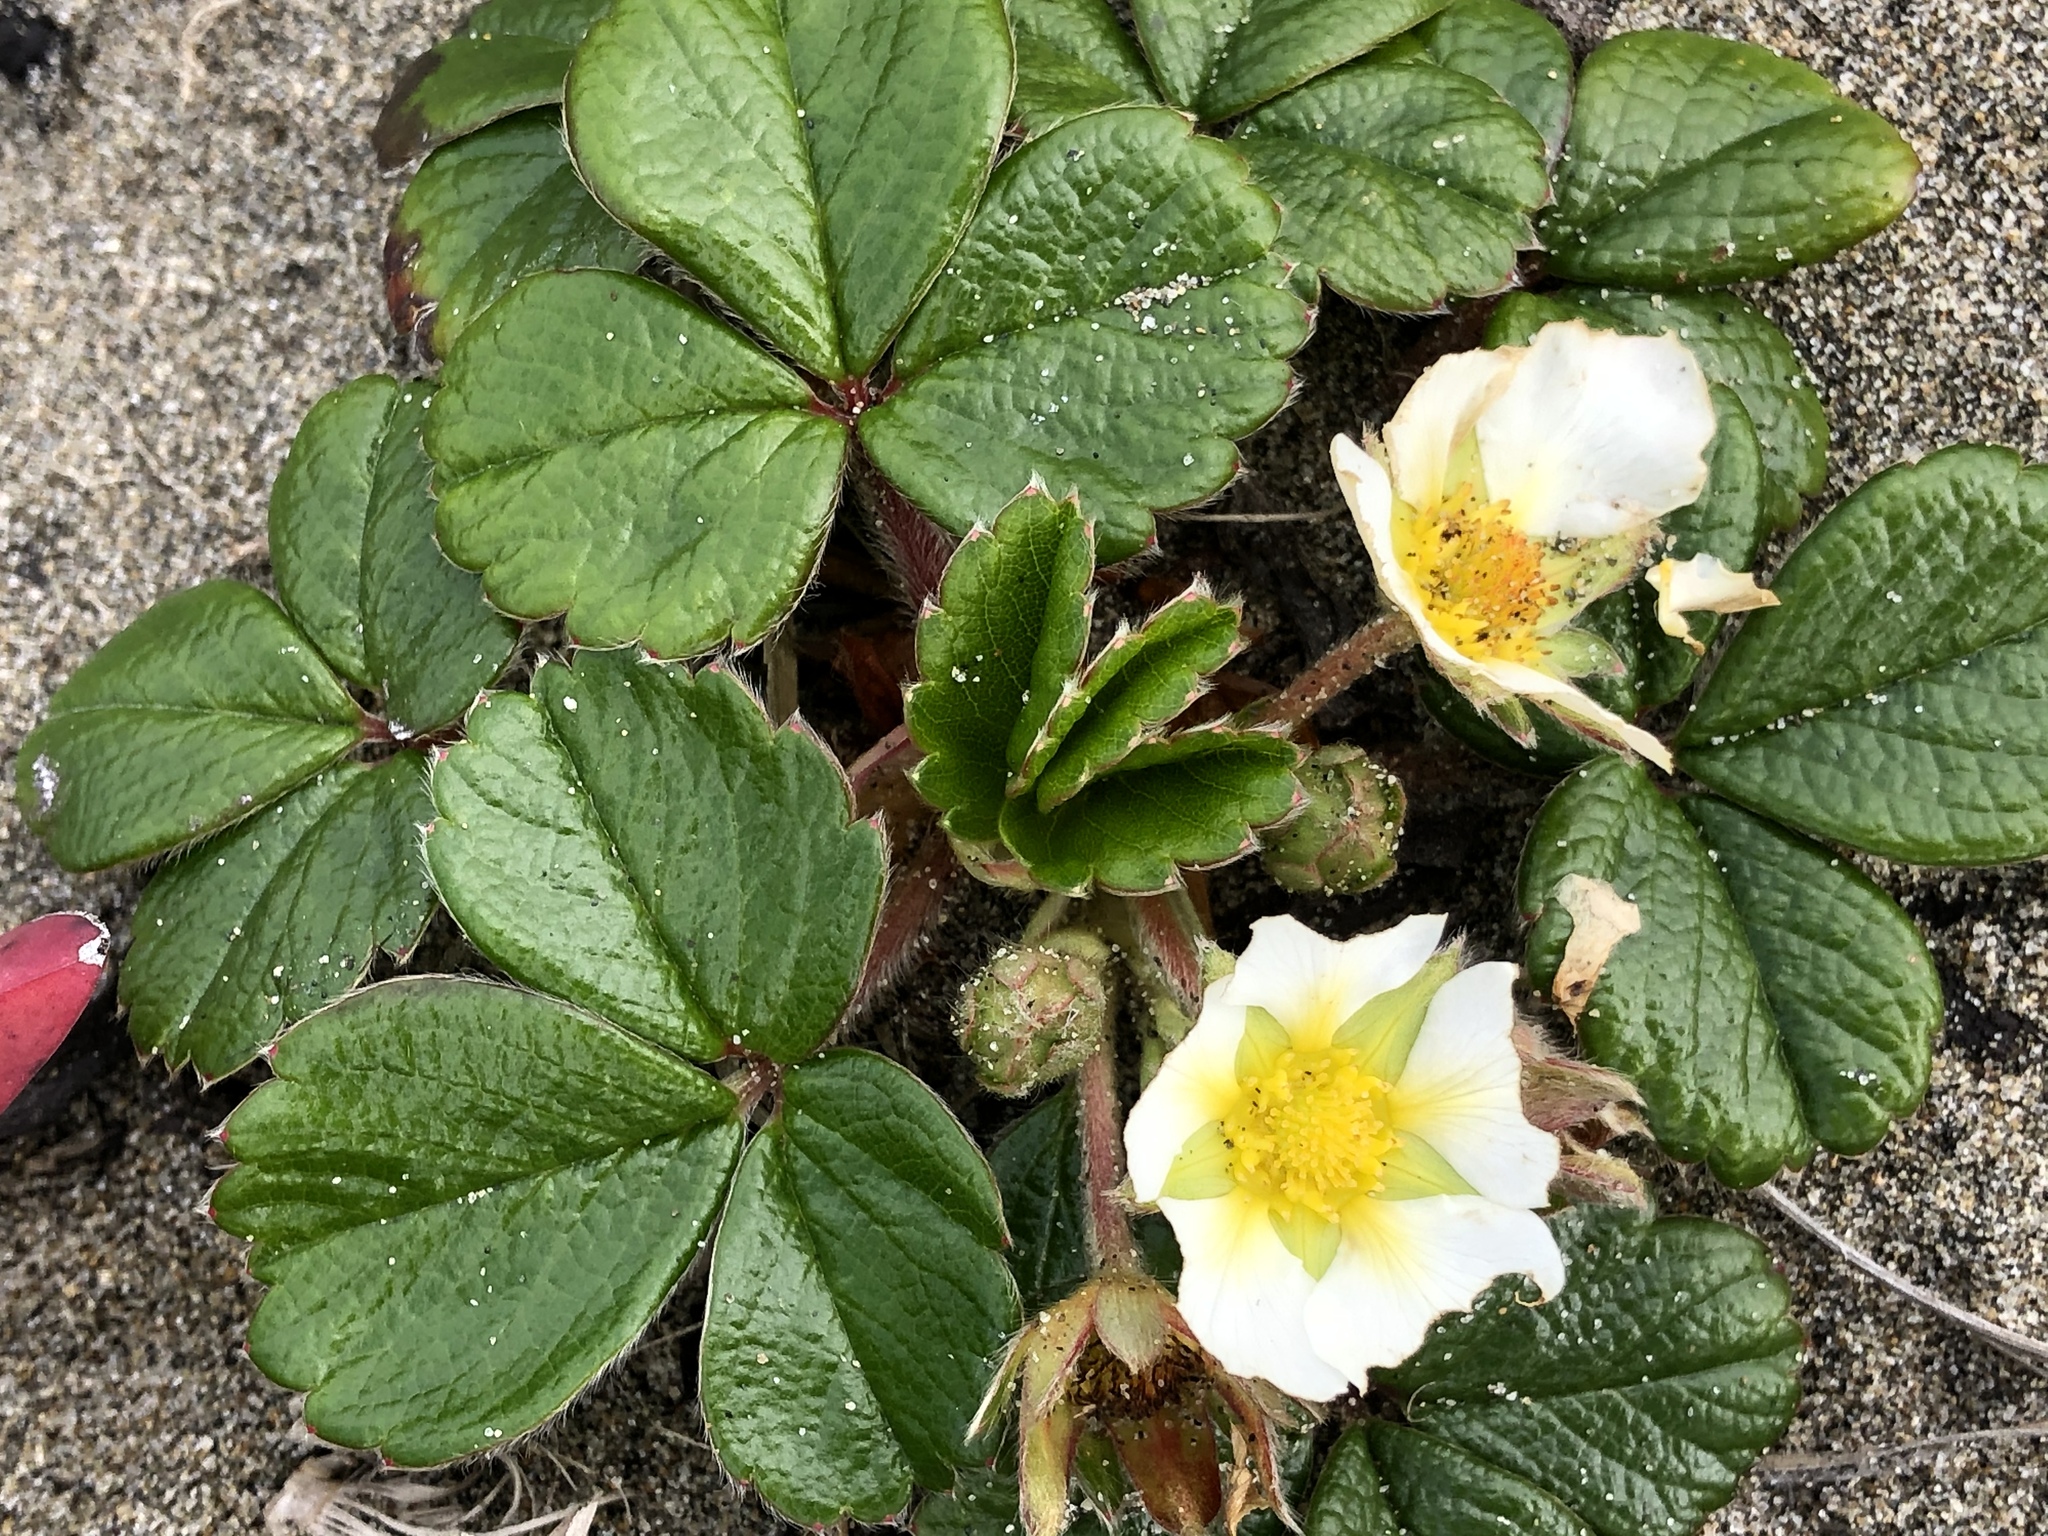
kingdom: Plantae
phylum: Tracheophyta
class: Magnoliopsida
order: Rosales
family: Rosaceae
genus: Fragaria
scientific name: Fragaria chiloensis
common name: Beach strawberry
